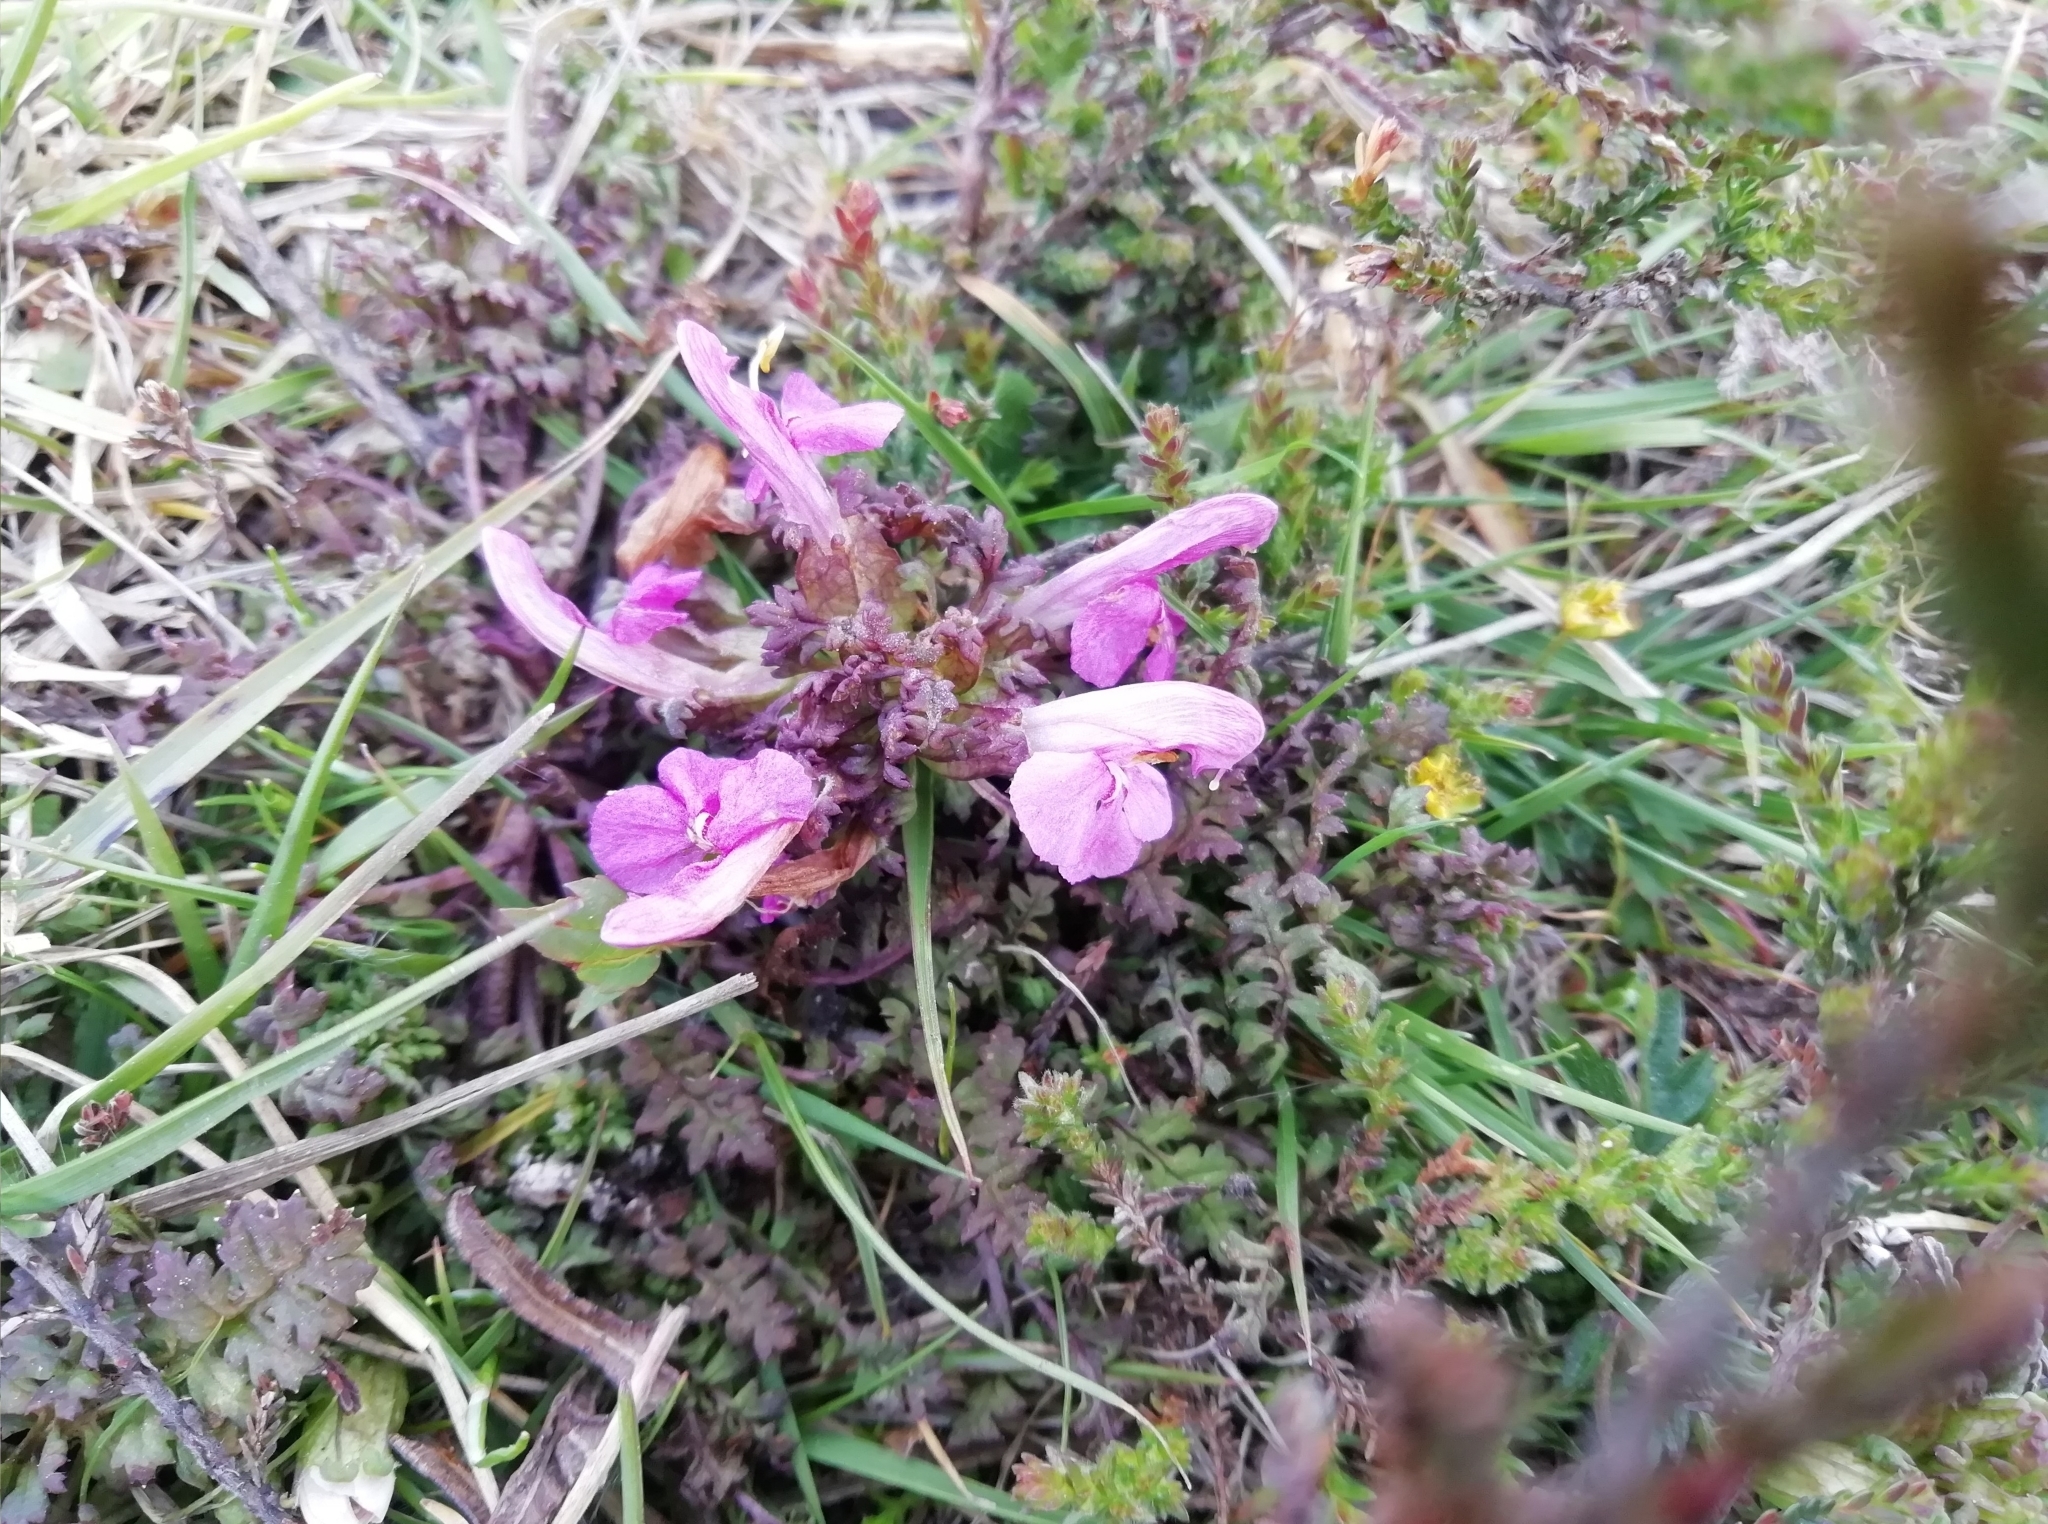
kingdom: Plantae
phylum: Tracheophyta
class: Magnoliopsida
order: Lamiales
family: Orobanchaceae
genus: Pedicularis
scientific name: Pedicularis sylvatica
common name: Lousewort
